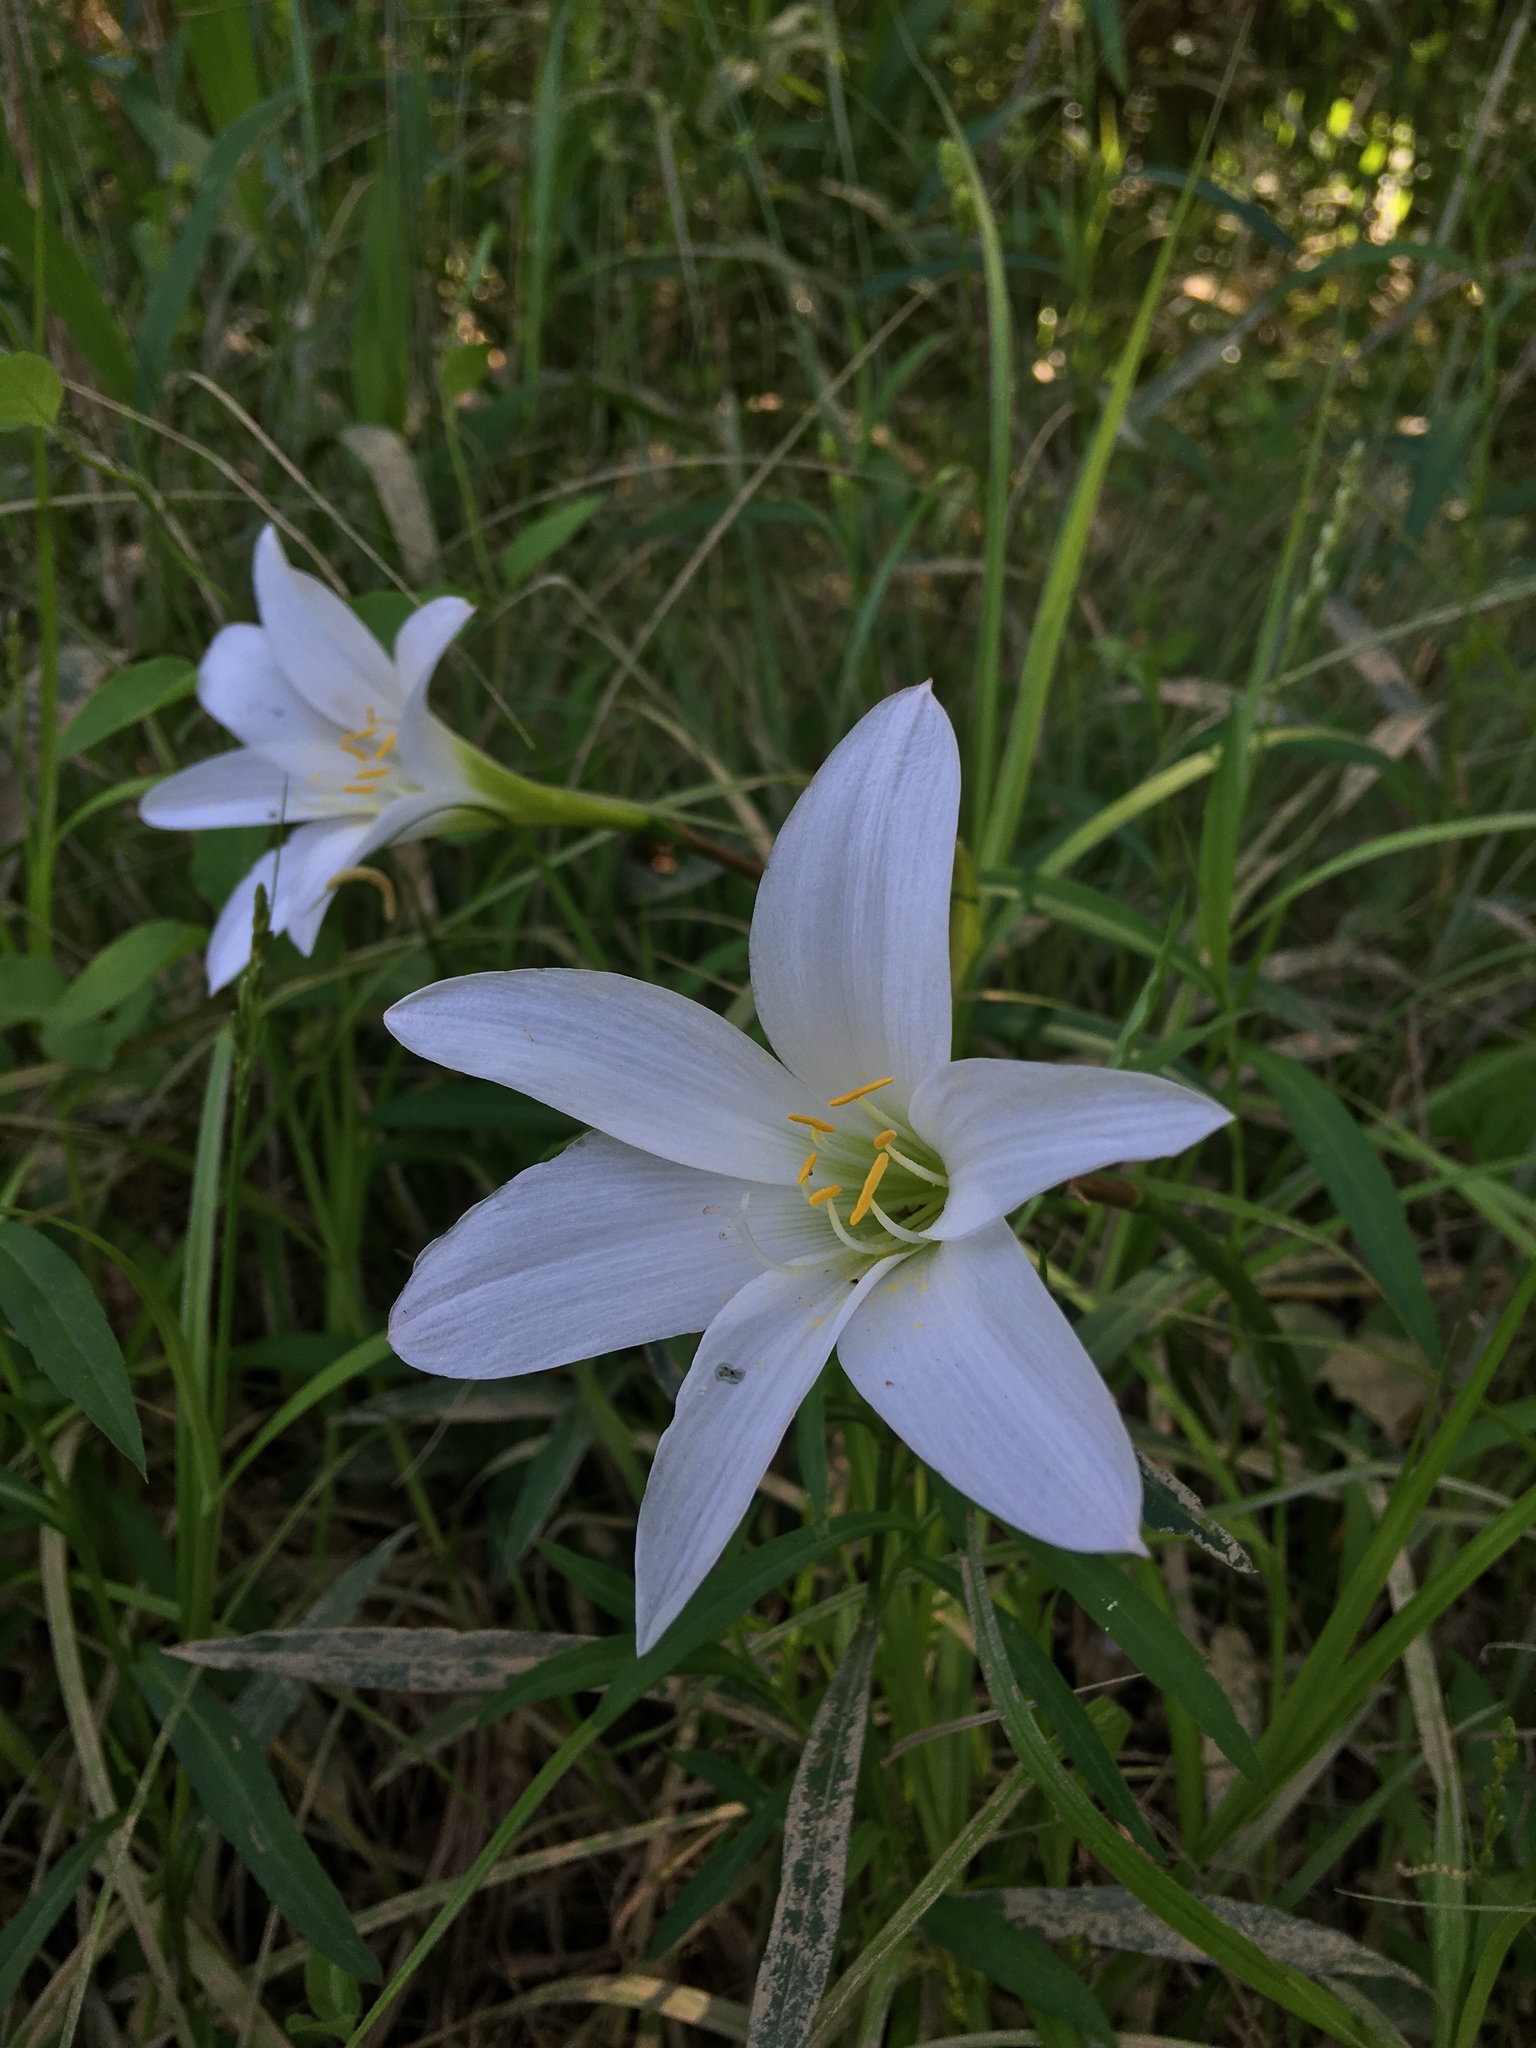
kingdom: Plantae
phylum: Tracheophyta
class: Liliopsida
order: Asparagales
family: Amaryllidaceae
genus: Zephyranthes
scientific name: Zephyranthes atamasco
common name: Atamasco lily
